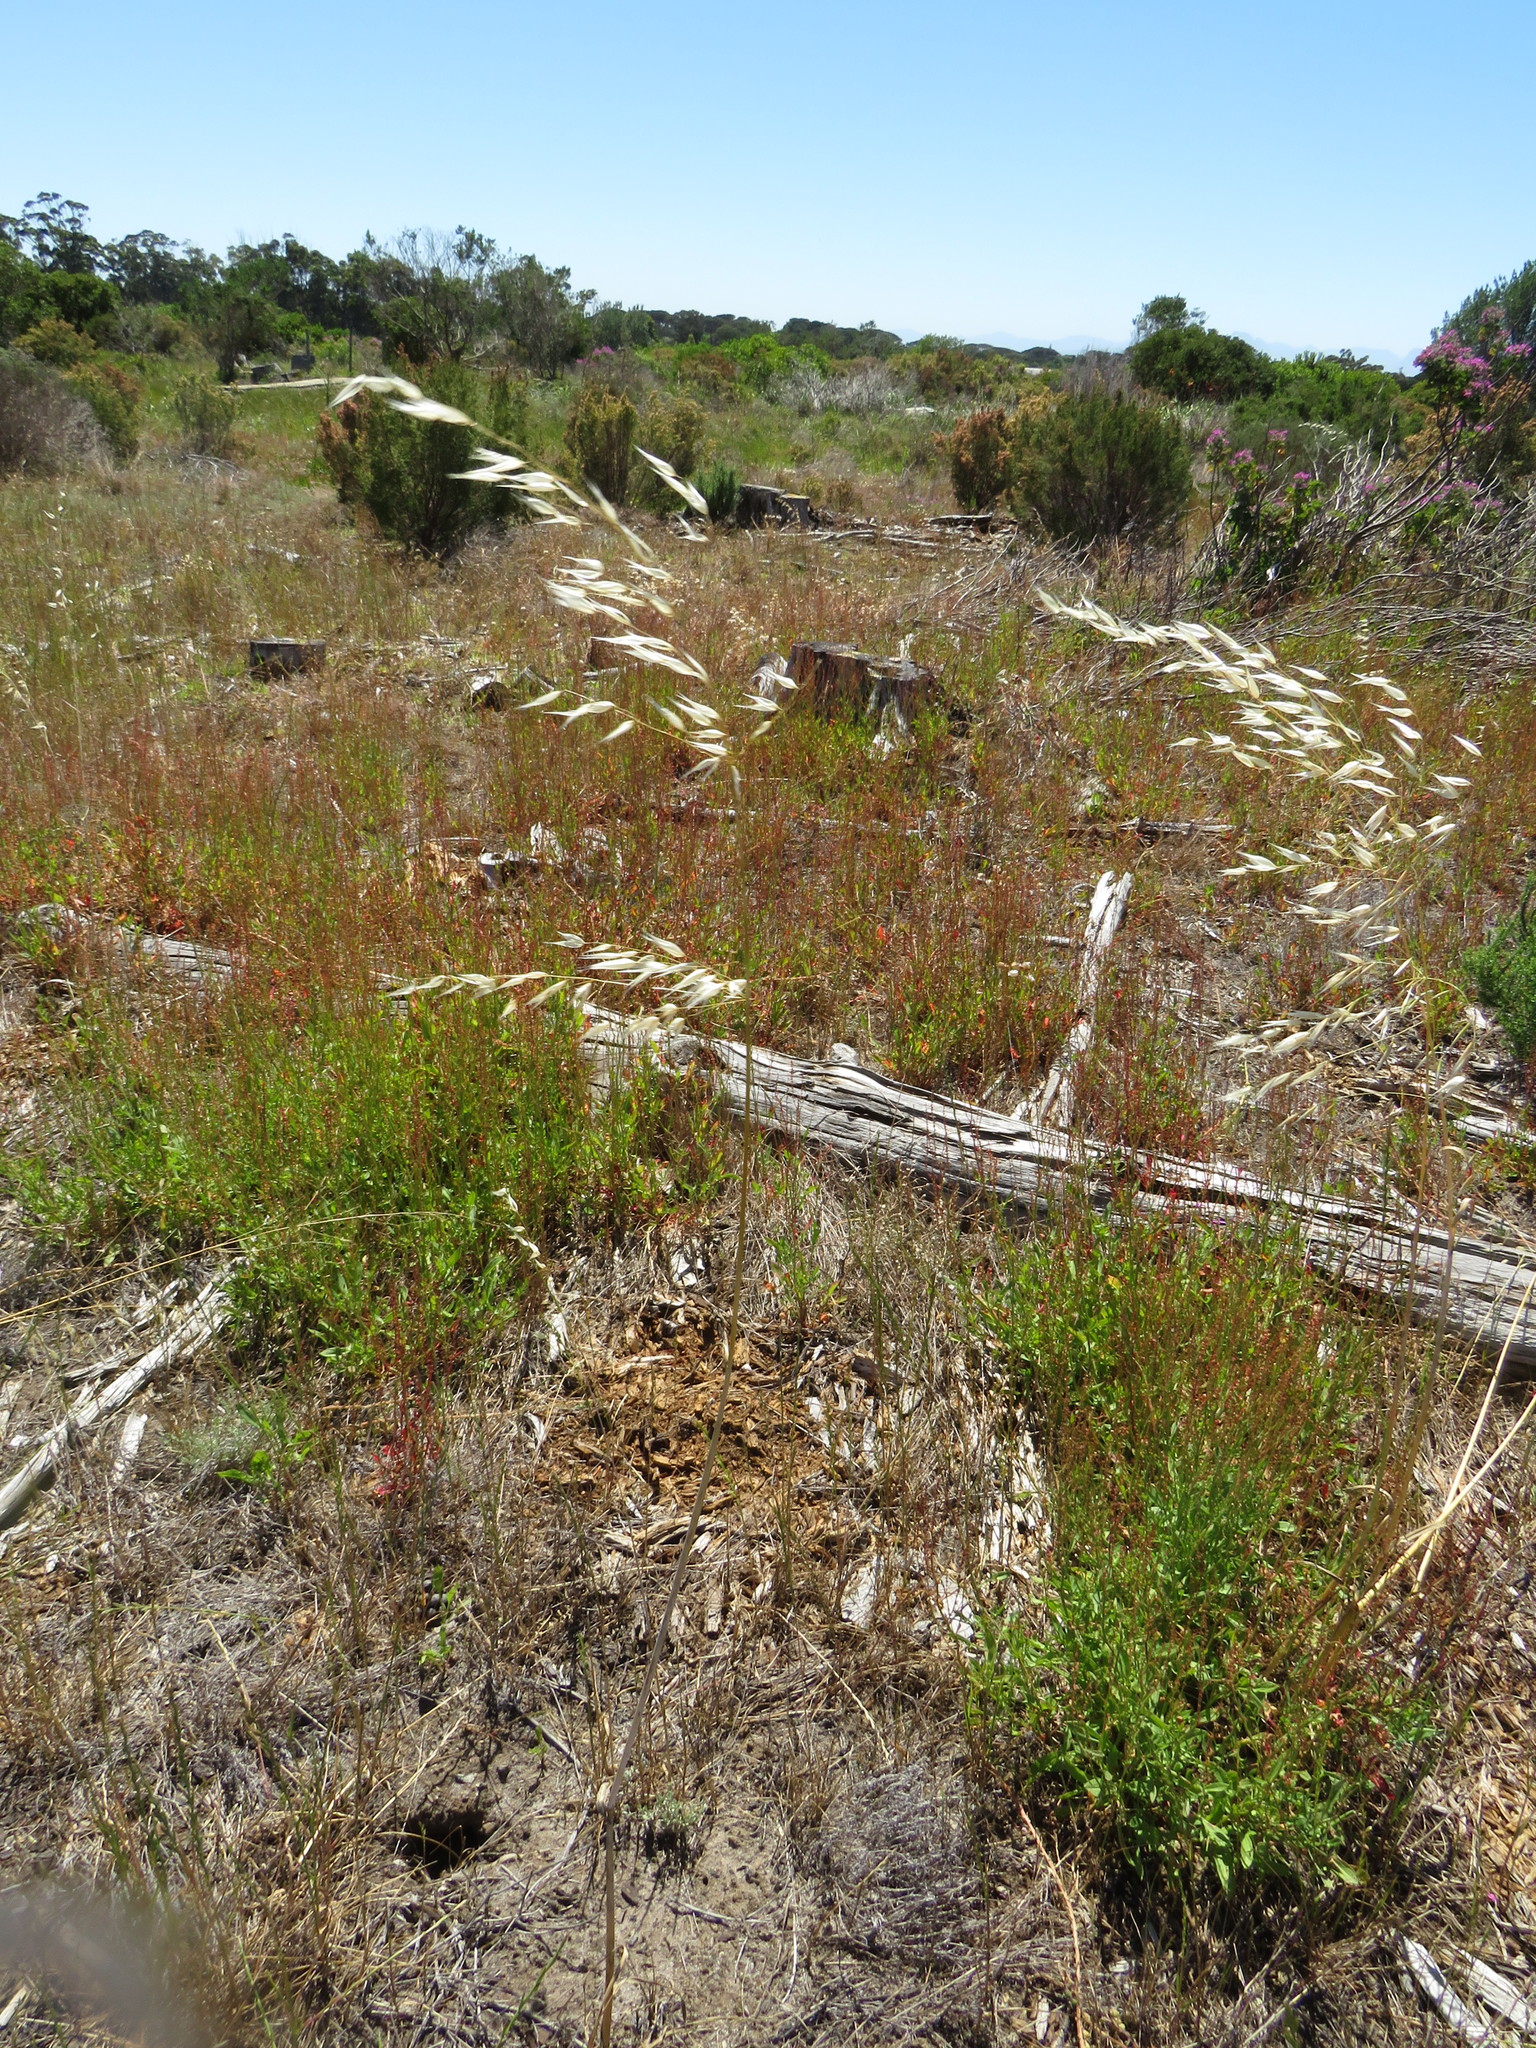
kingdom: Plantae
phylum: Tracheophyta
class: Liliopsida
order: Poales
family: Poaceae
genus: Avena
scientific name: Avena fatua
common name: Wild oat
